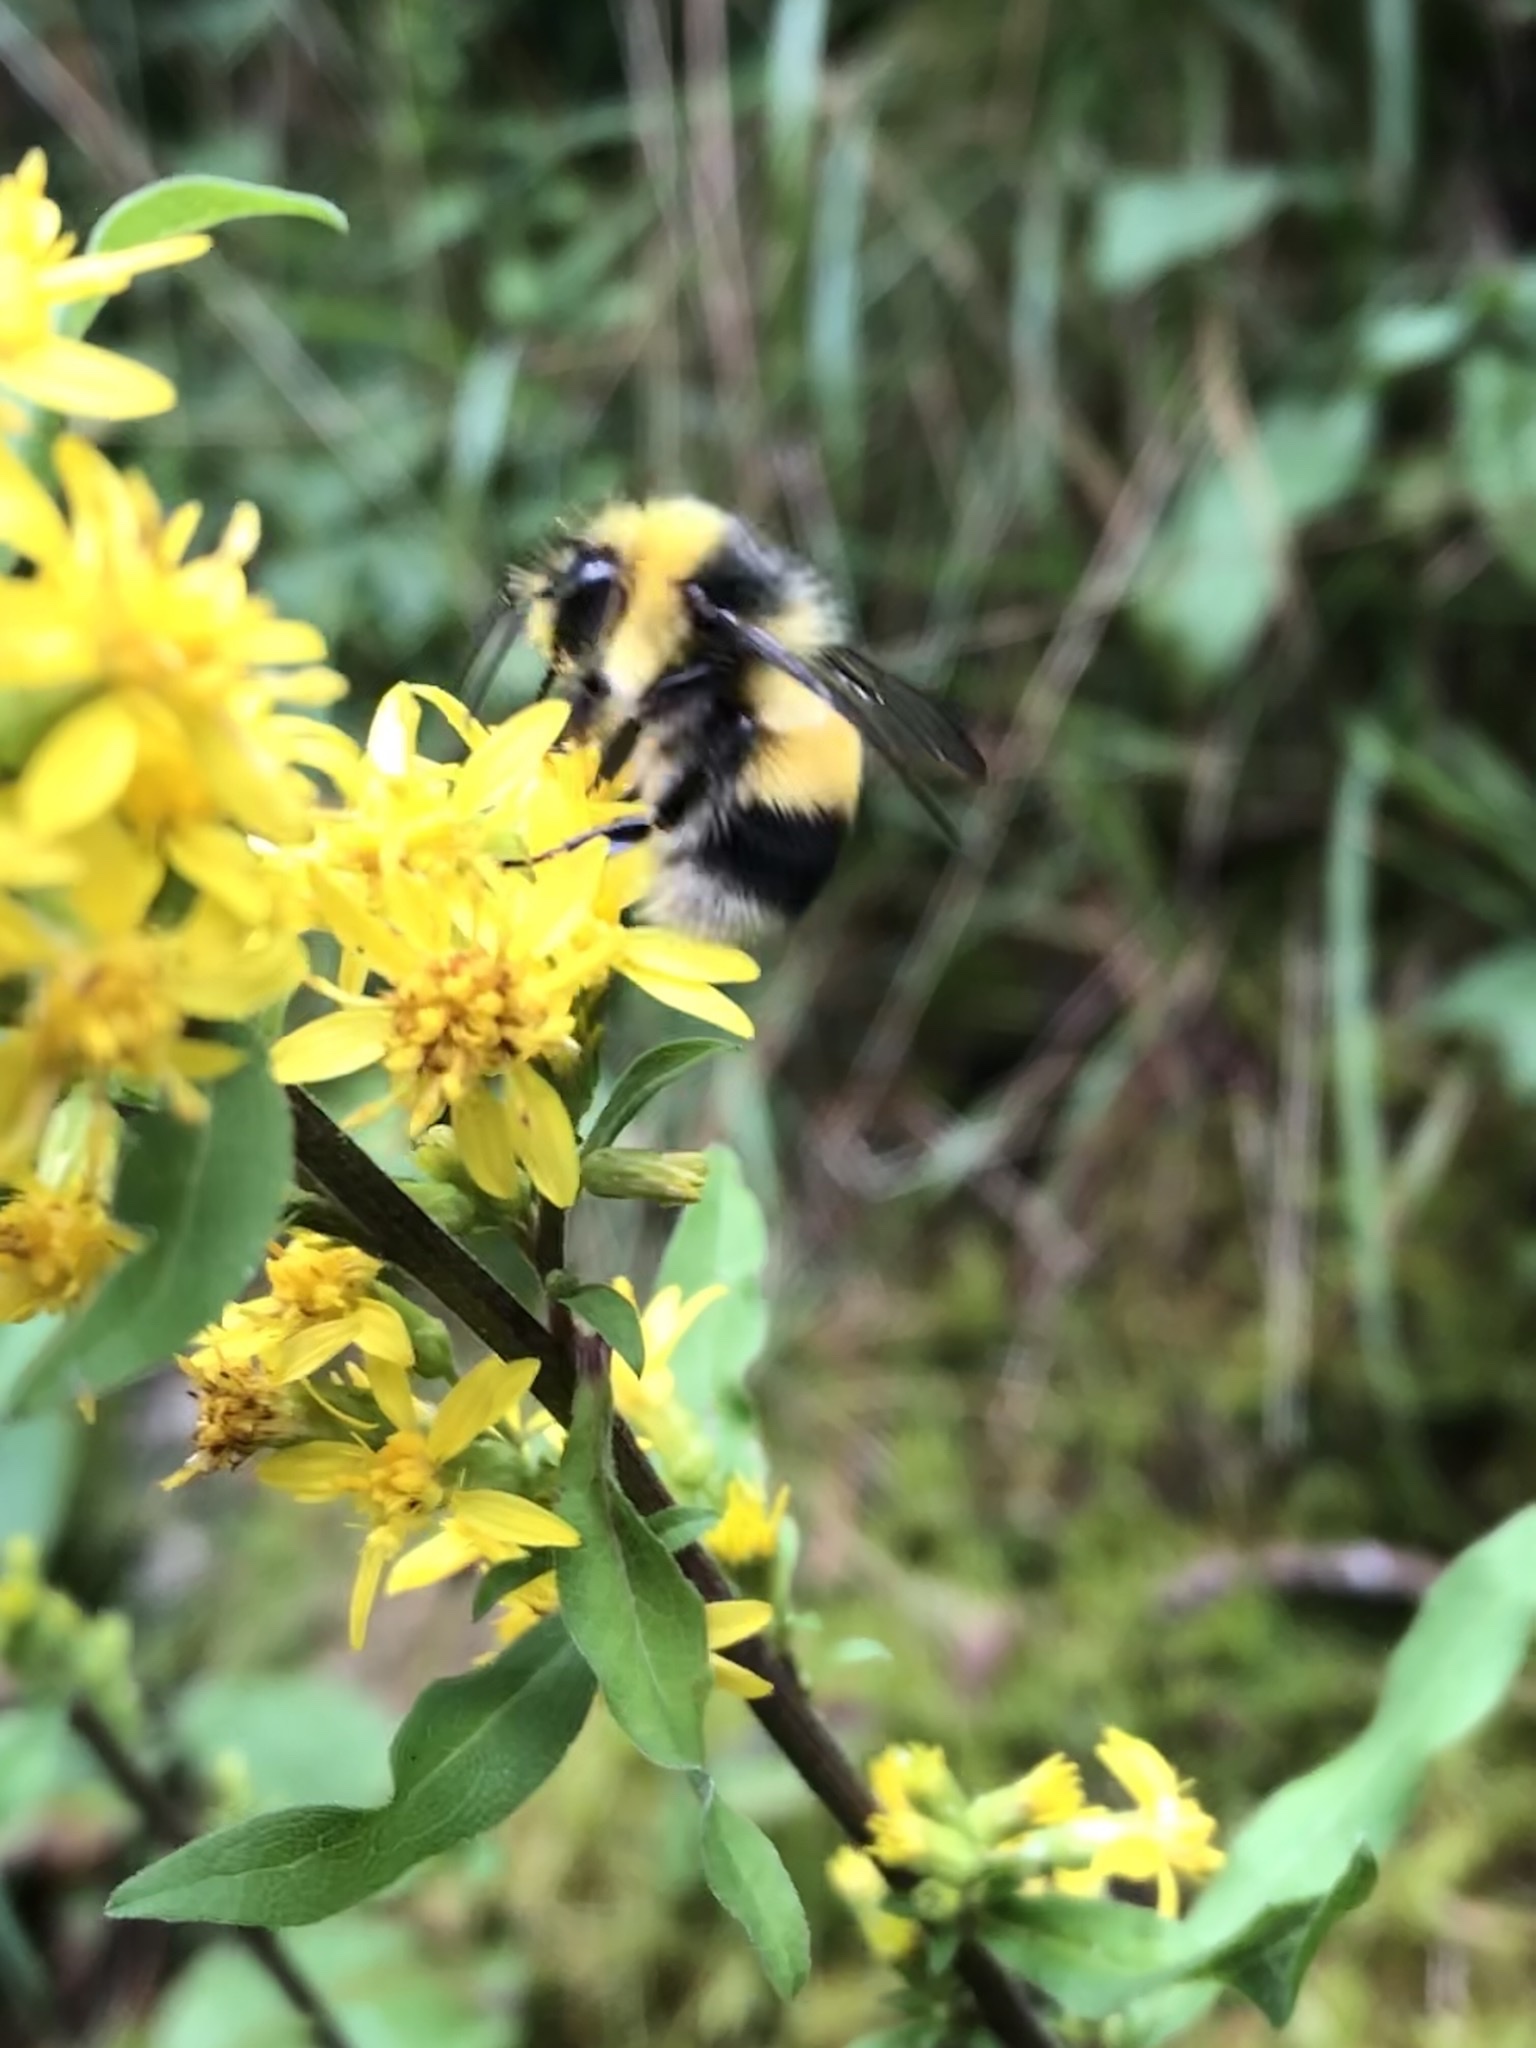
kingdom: Plantae
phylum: Tracheophyta
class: Magnoliopsida
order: Asterales
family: Asteraceae
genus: Solidago
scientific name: Solidago virgaurea
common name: Goldenrod
